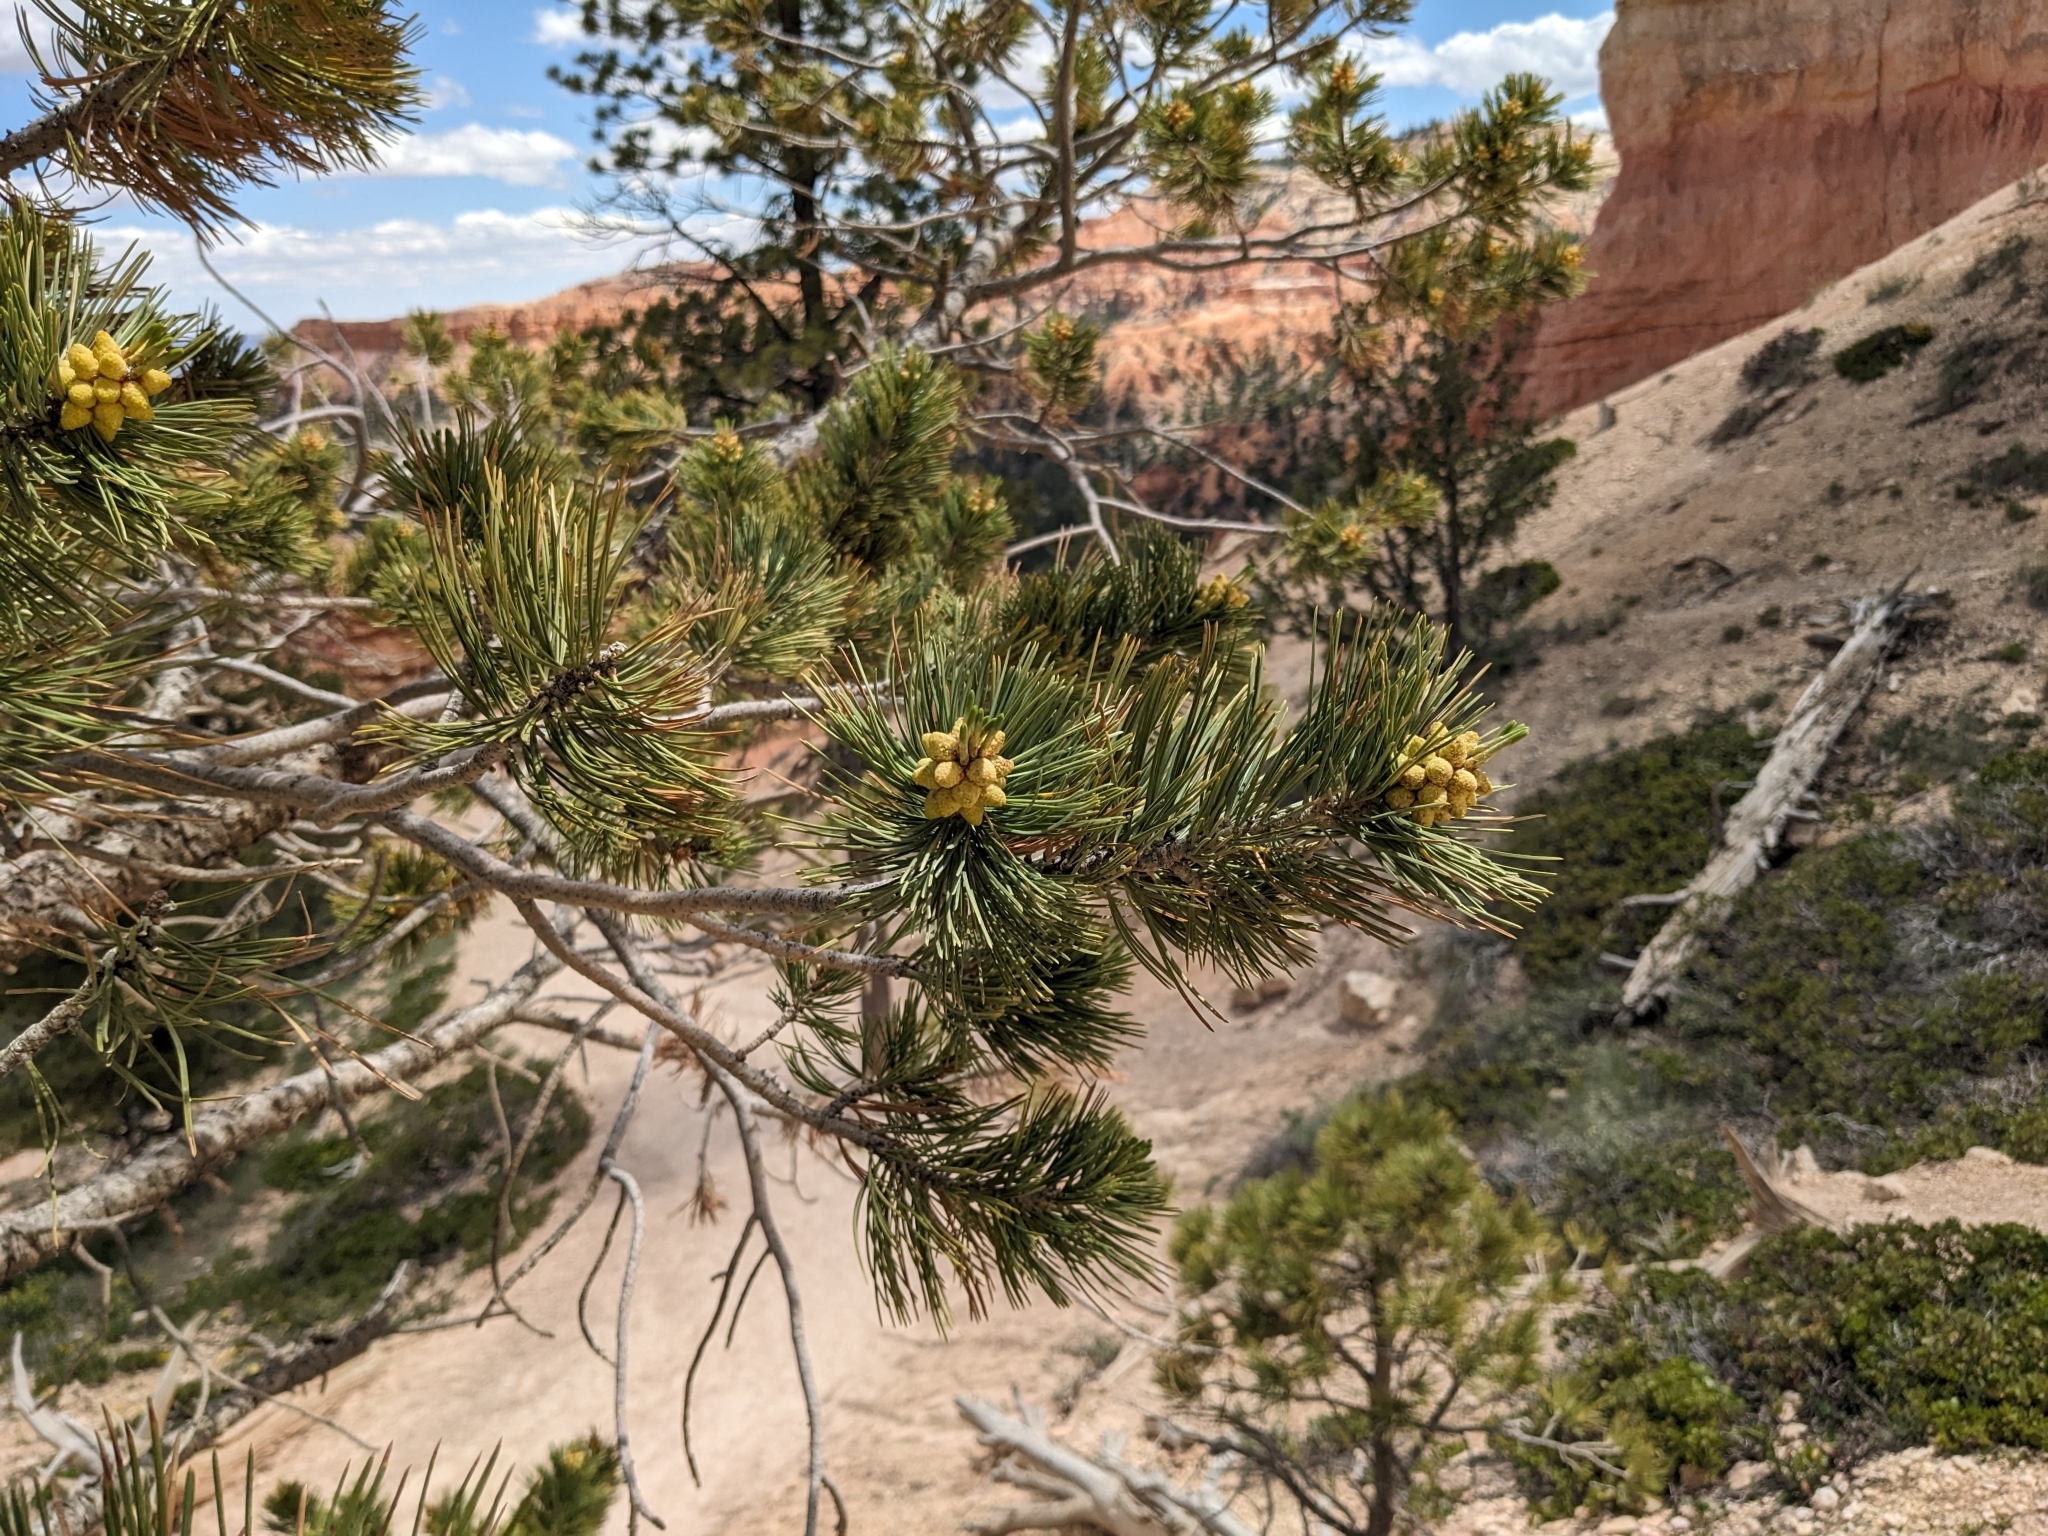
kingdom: Plantae
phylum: Tracheophyta
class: Pinopsida
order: Pinales
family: Pinaceae
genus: Pinus
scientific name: Pinus flexilis
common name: Limber pine
